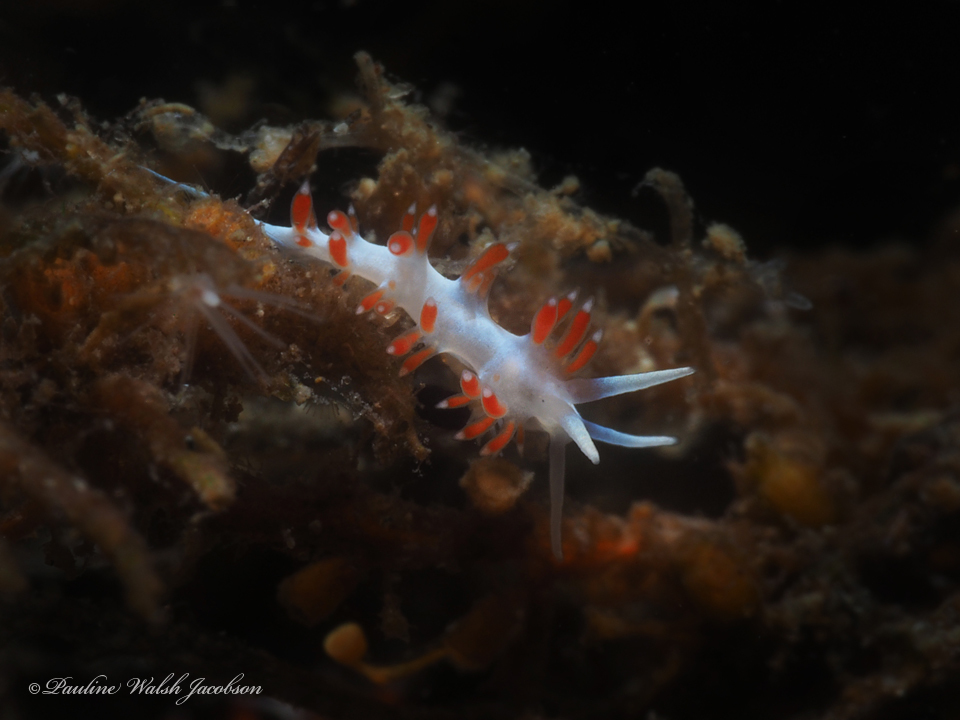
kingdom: Animalia
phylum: Mollusca
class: Gastropoda
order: Nudibranchia
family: Flabellinidae
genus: Flabellina
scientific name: Flabellina dushia
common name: Dushia flabellina
